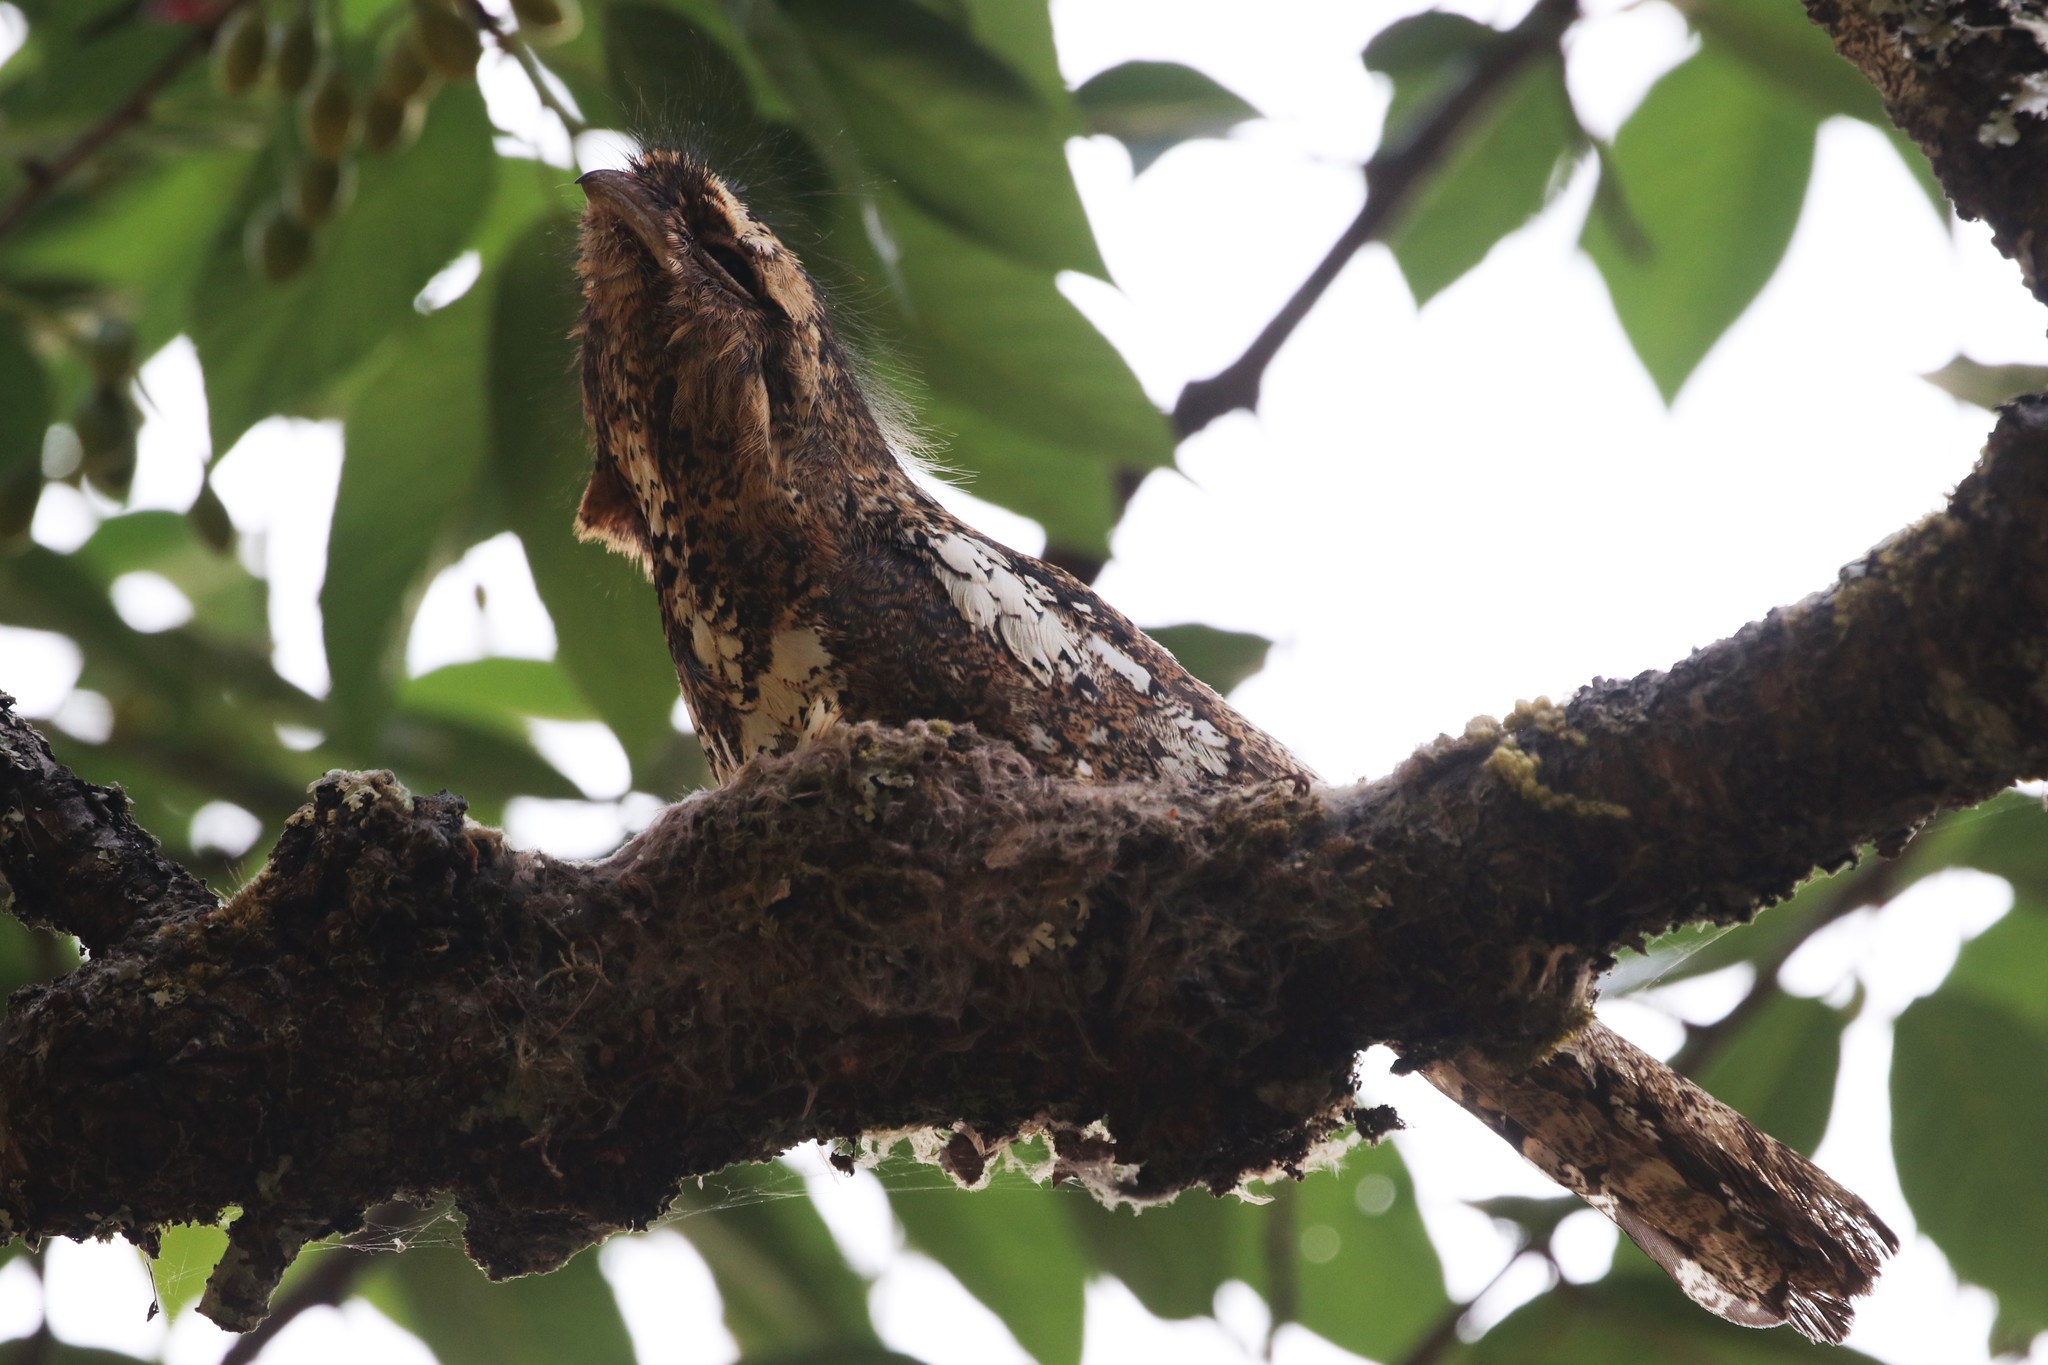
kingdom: Animalia
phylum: Chordata
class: Aves
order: Caprimulgiformes
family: Podargidae
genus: Batrachostomus
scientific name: Batrachostomus hodgsoni
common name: Hodgson's frogmouth
